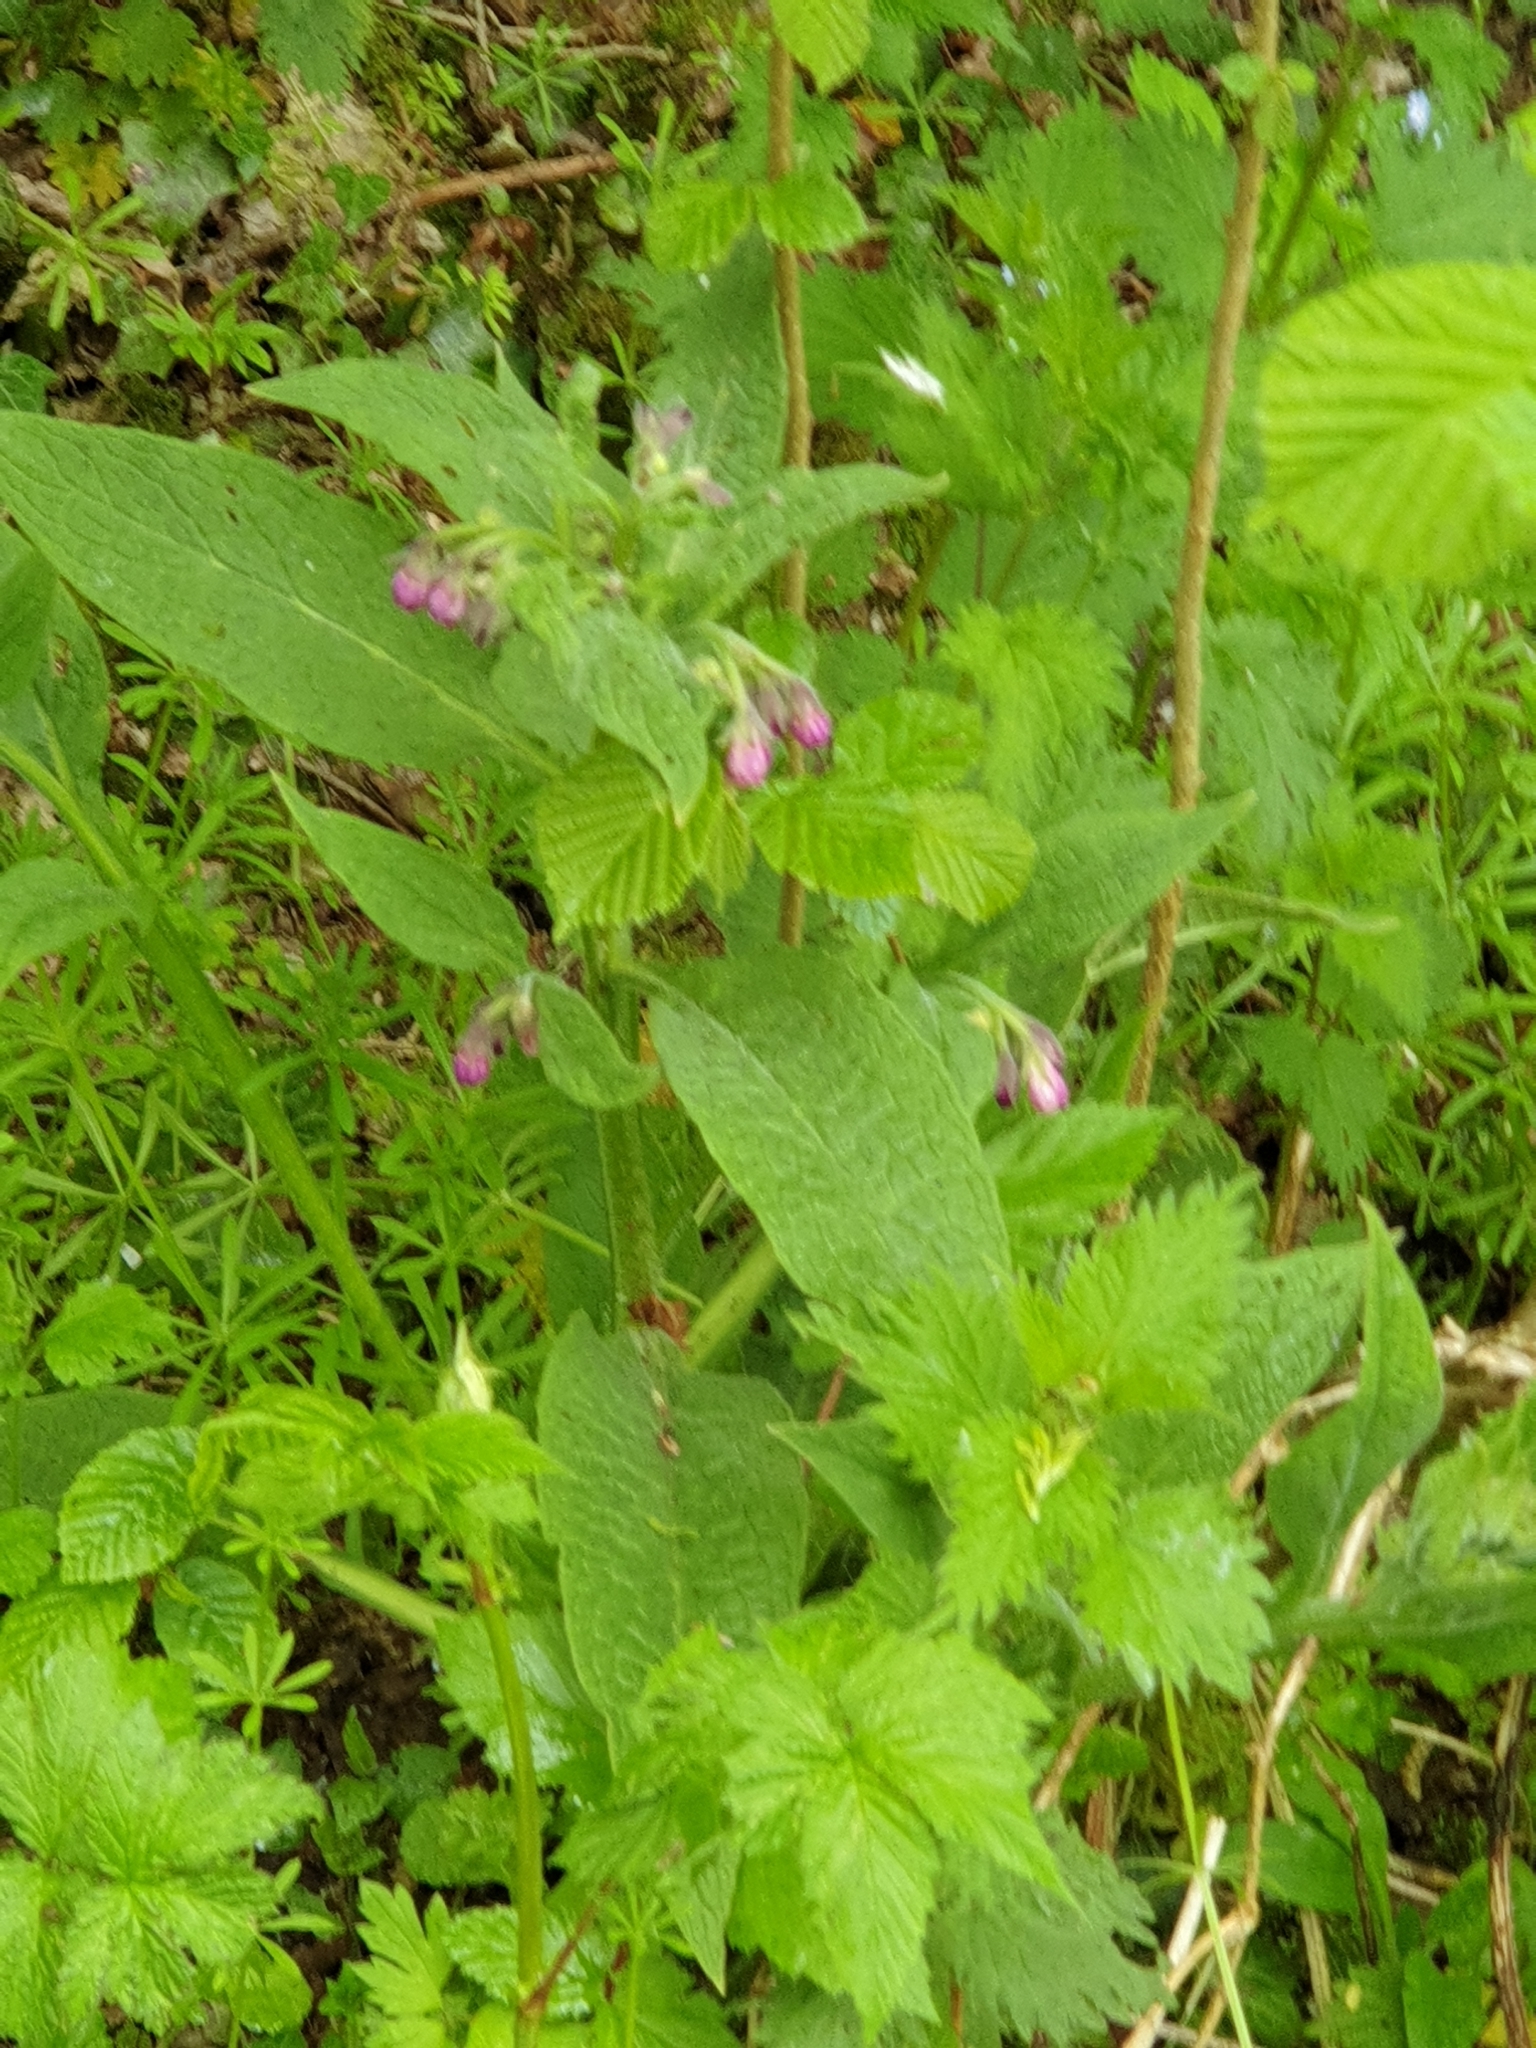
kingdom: Plantae
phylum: Tracheophyta
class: Magnoliopsida
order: Boraginales
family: Boraginaceae
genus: Symphytum
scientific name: Symphytum officinale
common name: Common comfrey
